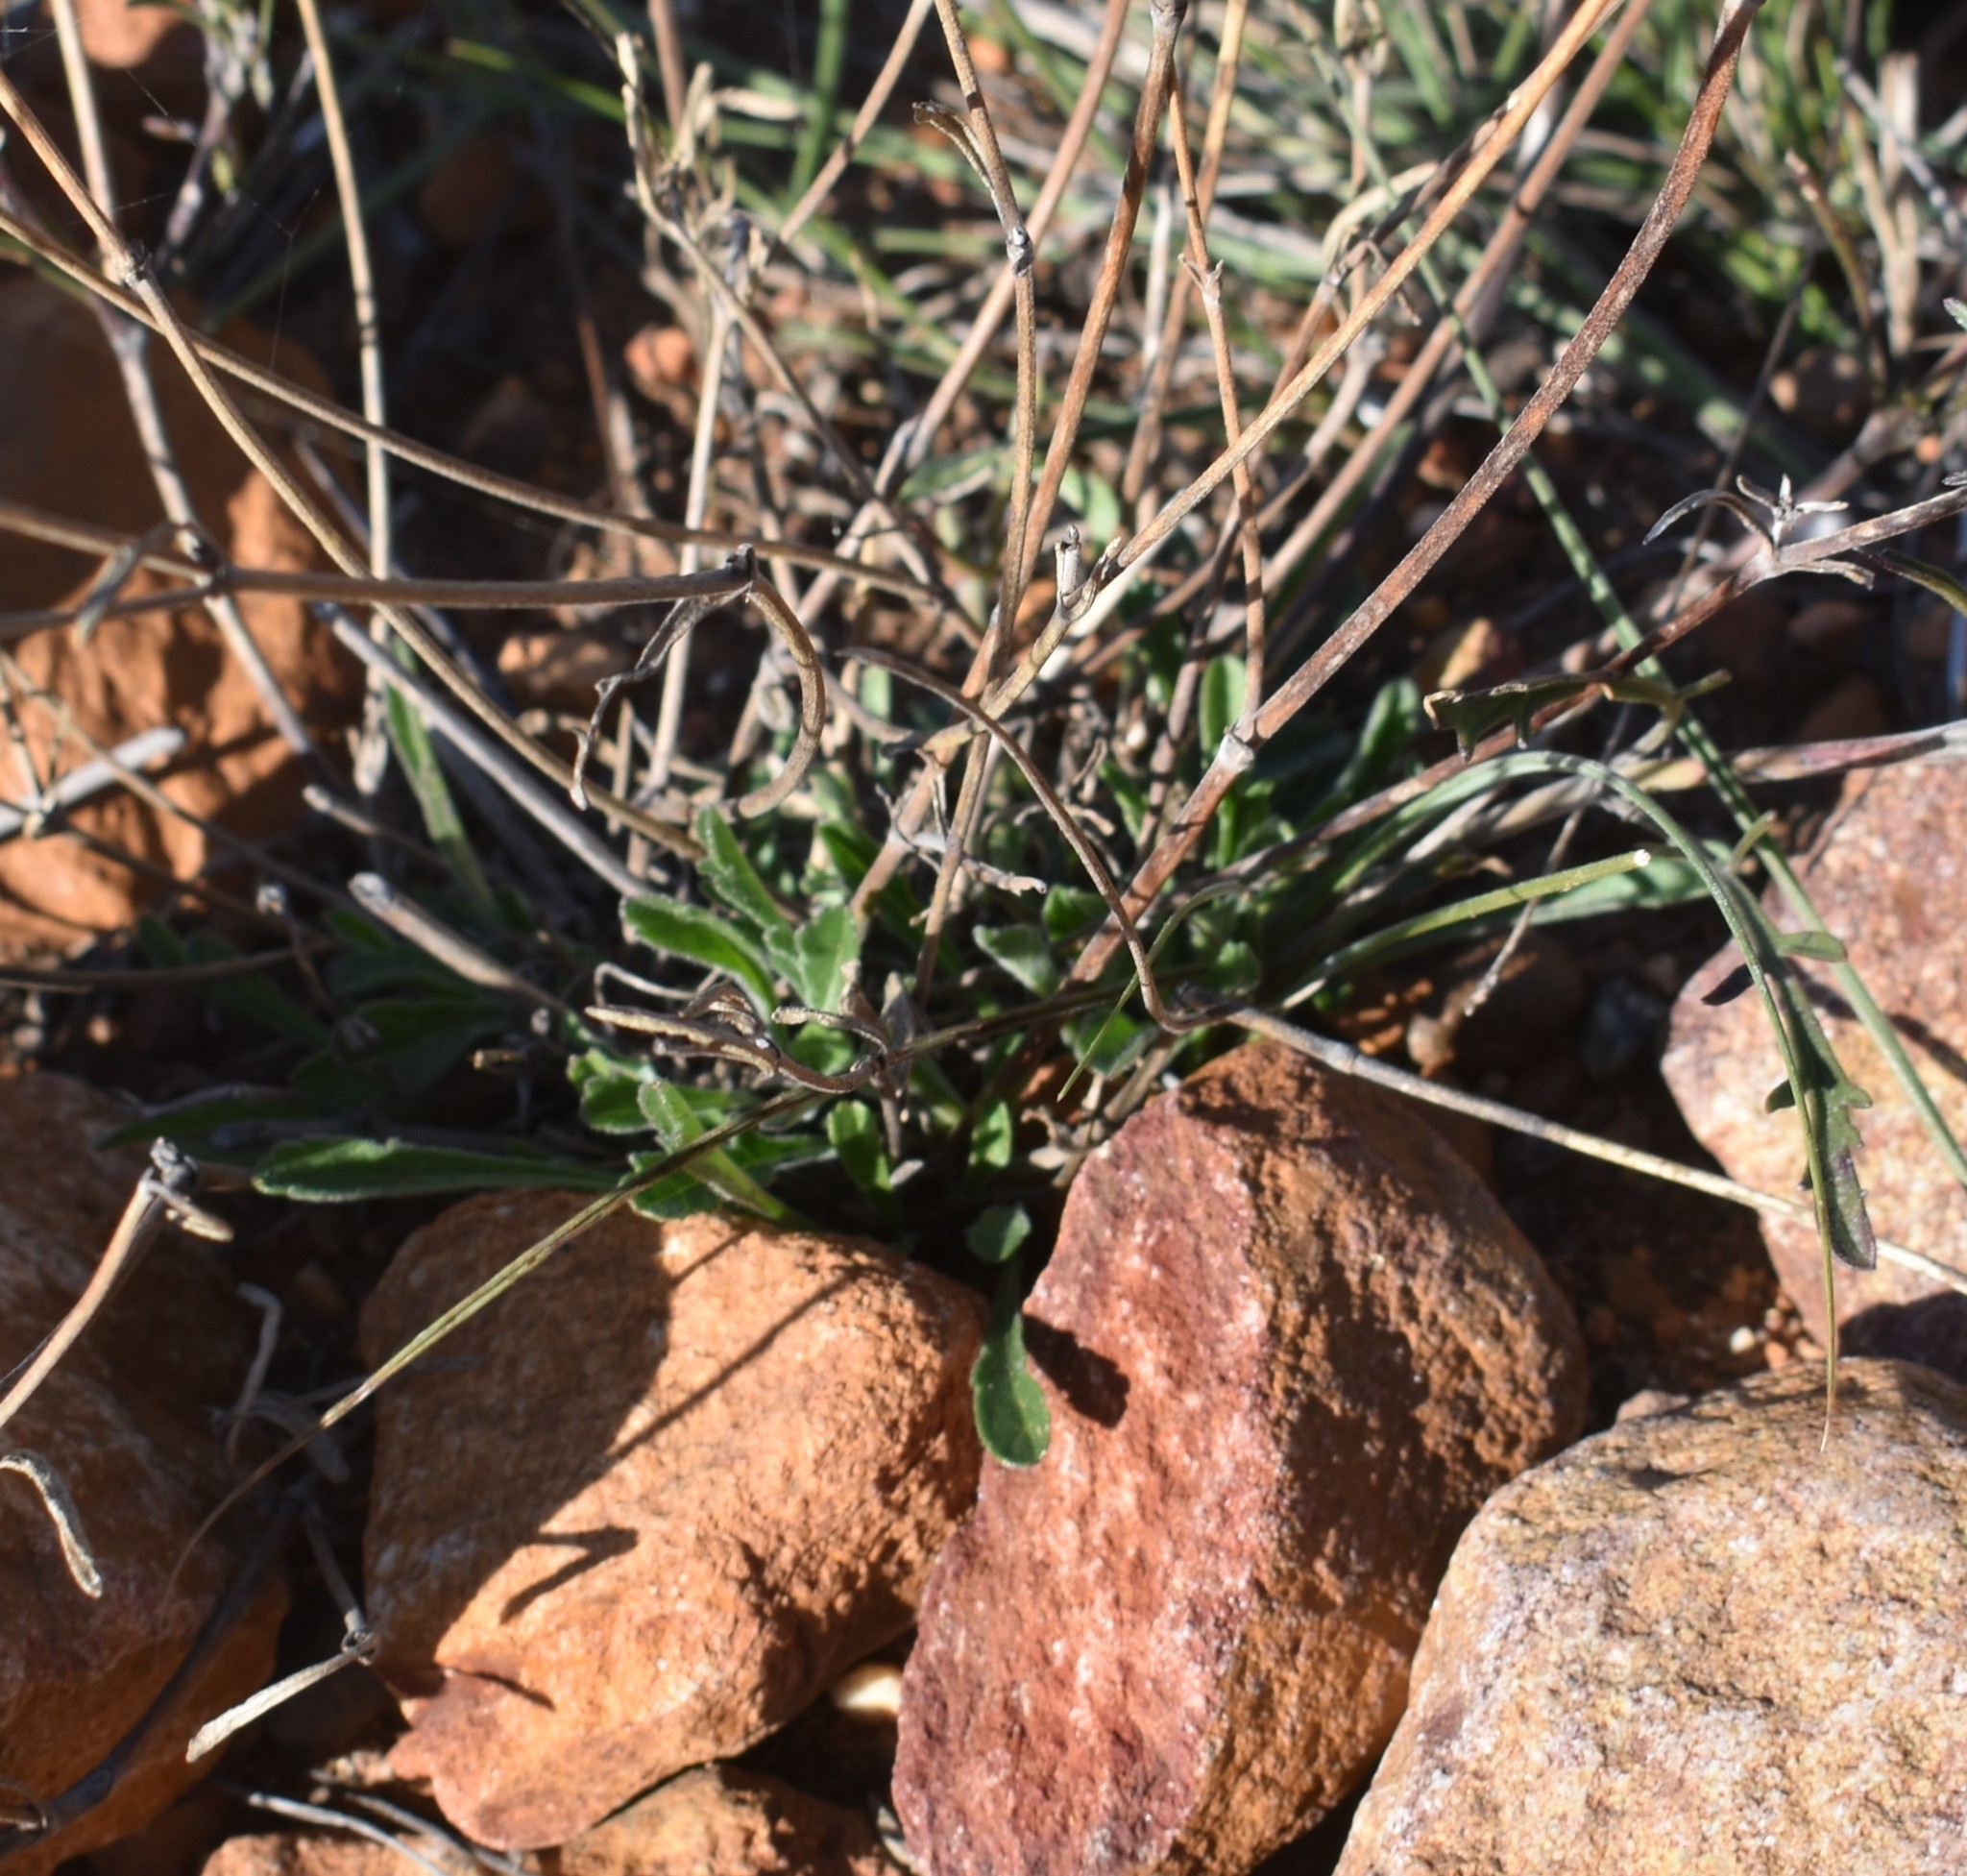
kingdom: Plantae
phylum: Tracheophyta
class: Magnoliopsida
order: Dipsacales
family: Caprifoliaceae
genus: Scabiosa
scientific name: Scabiosa columbaria
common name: Small scabious
